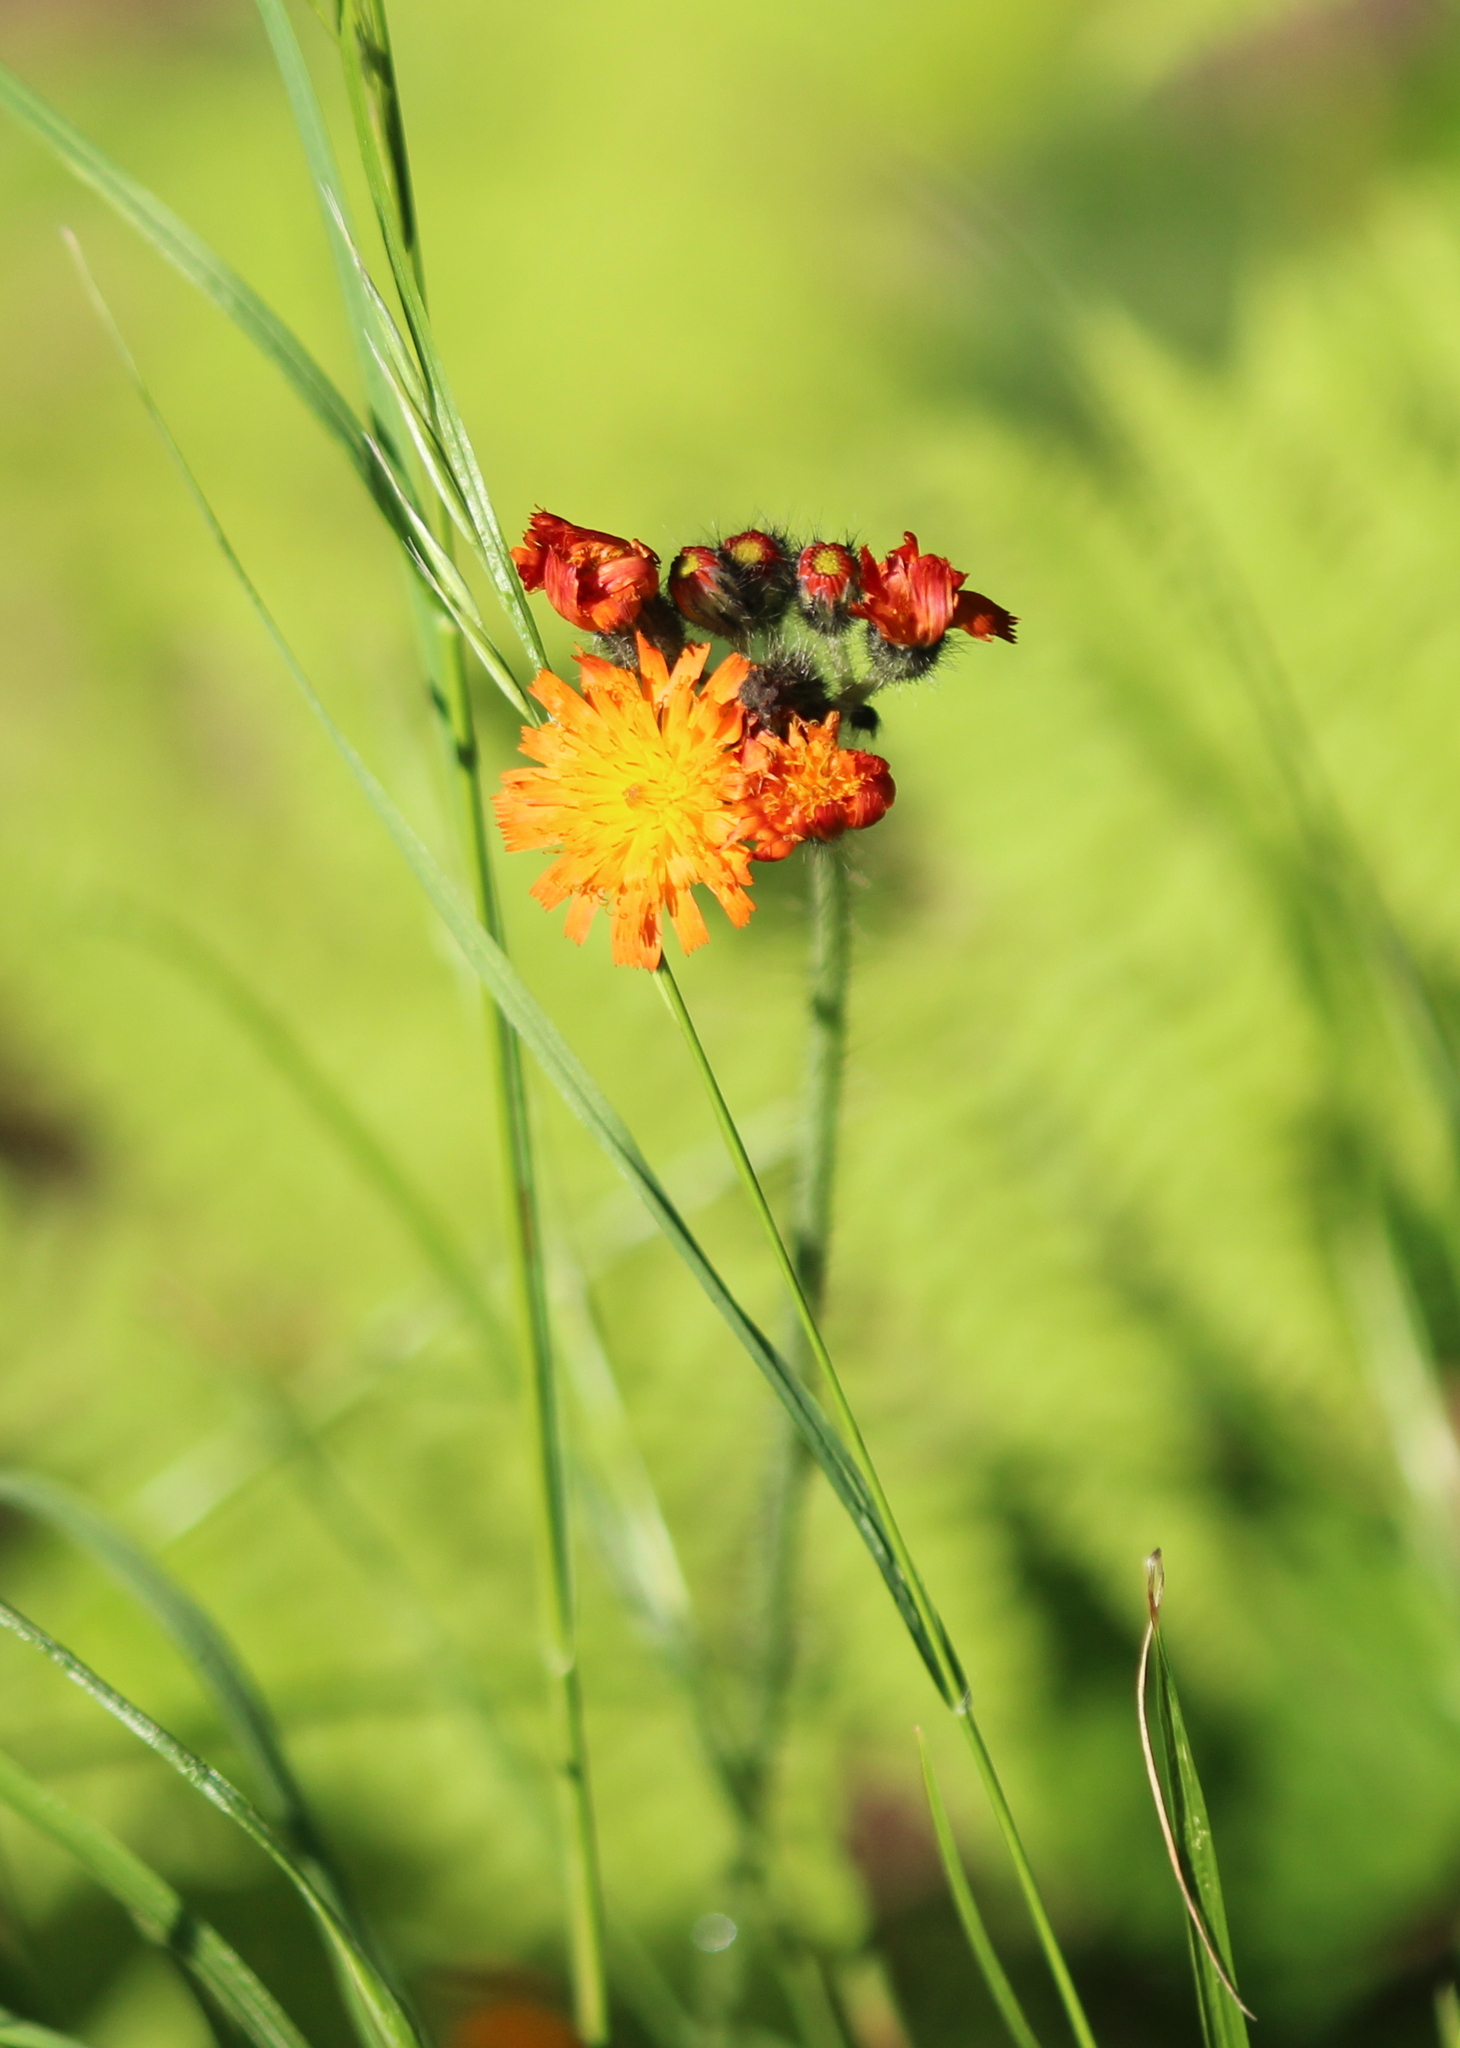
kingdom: Plantae
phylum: Tracheophyta
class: Magnoliopsida
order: Asterales
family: Asteraceae
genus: Pilosella
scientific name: Pilosella aurantiaca
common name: Fox-and-cubs
